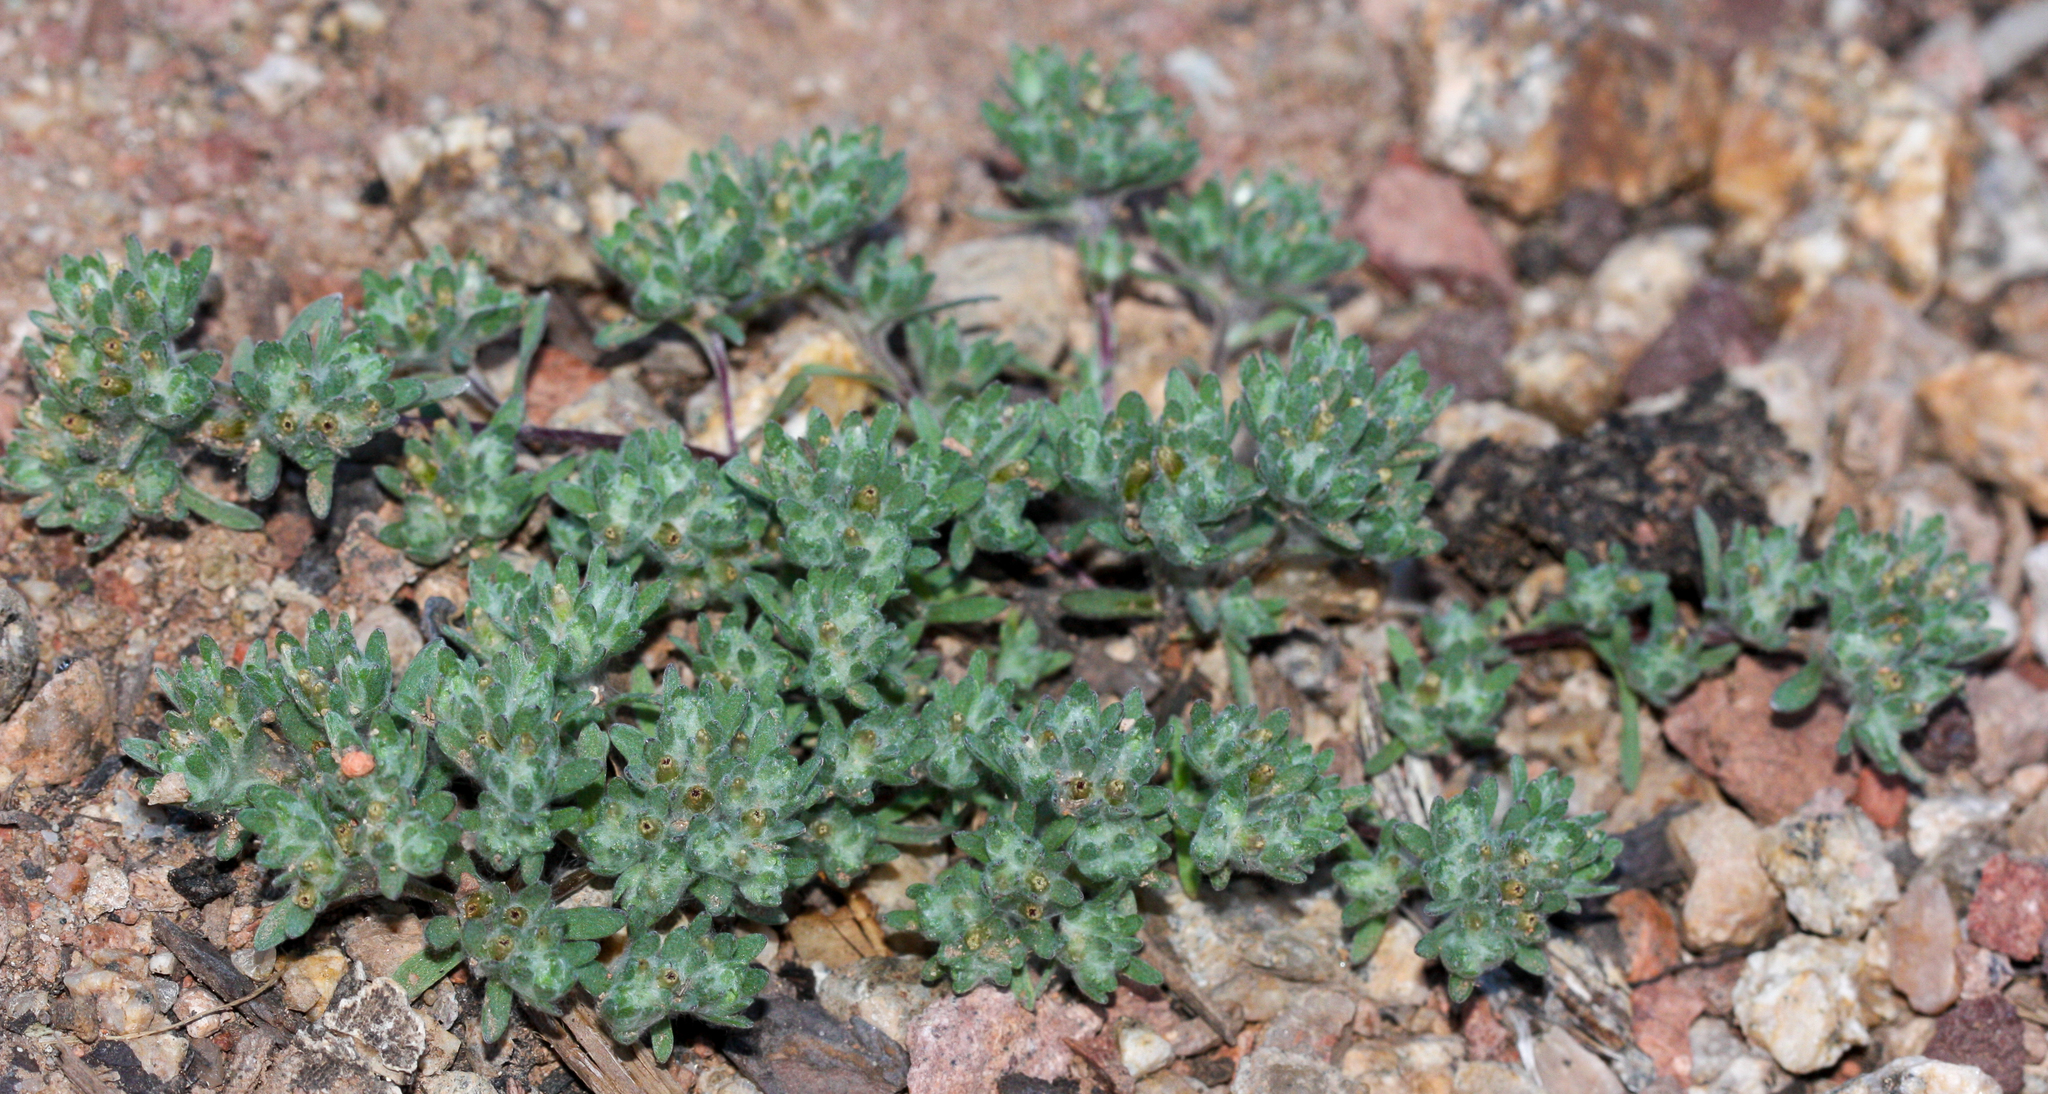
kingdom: Plantae
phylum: Tracheophyta
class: Magnoliopsida
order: Asterales
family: Asteraceae
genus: Lasiopogon
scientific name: Lasiopogon glomerulatus
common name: Green cat thorn
